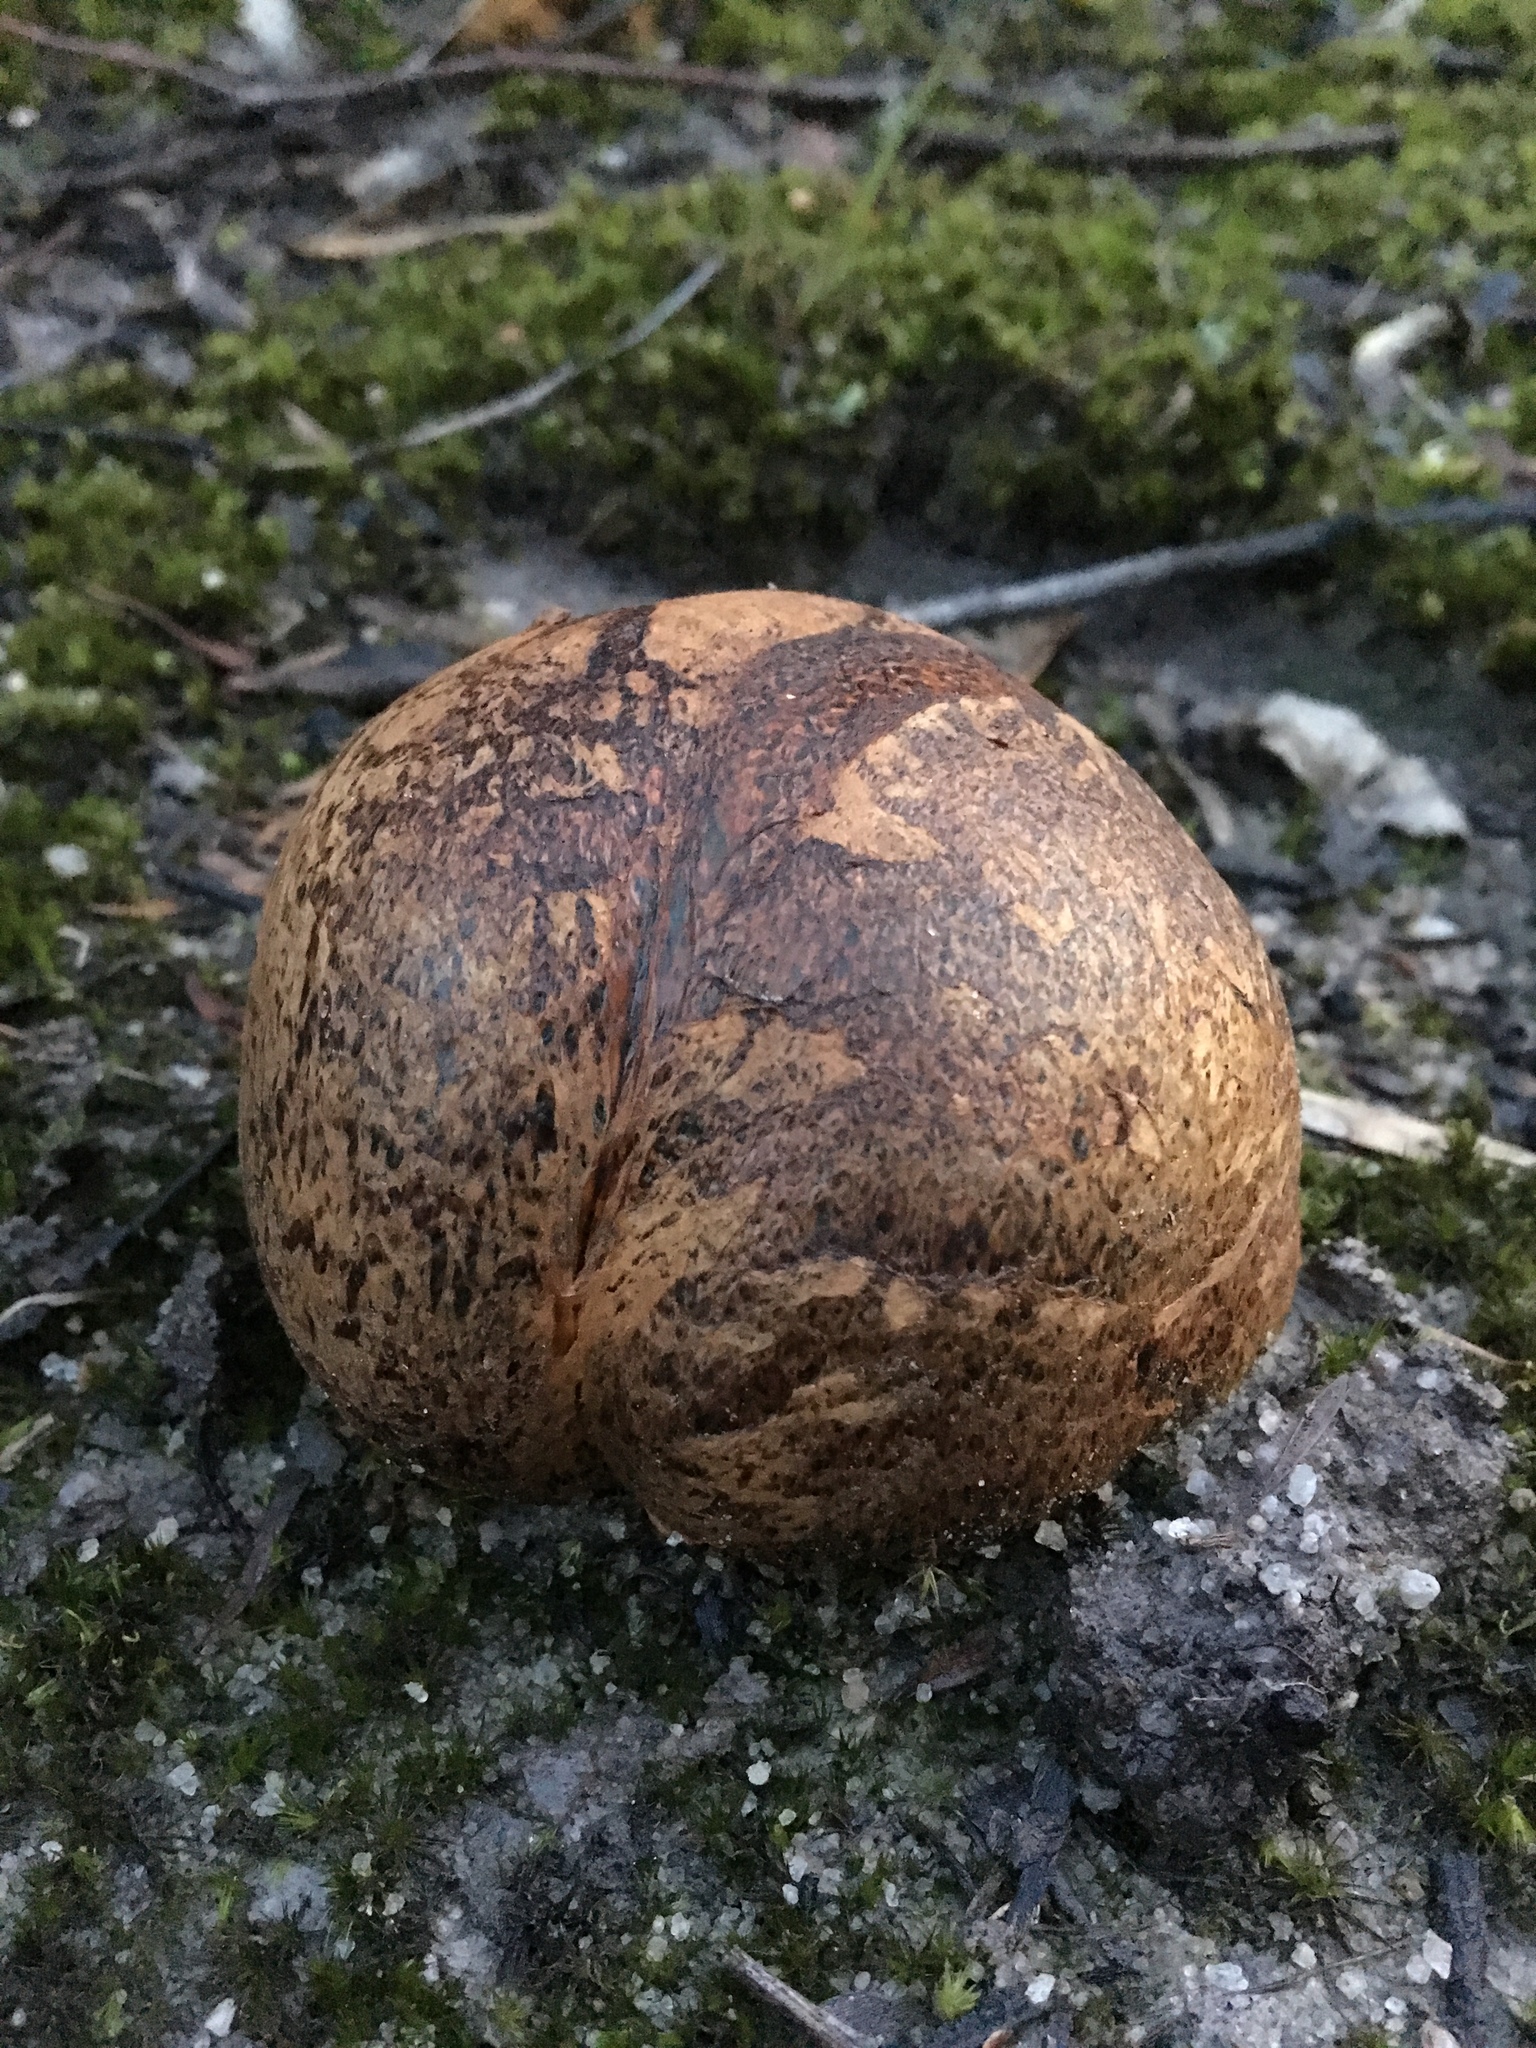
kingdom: Fungi
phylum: Basidiomycota
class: Agaricomycetes
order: Boletales
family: Sclerodermataceae
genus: Pisolithus
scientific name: Pisolithus arhizus
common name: Dyeball
